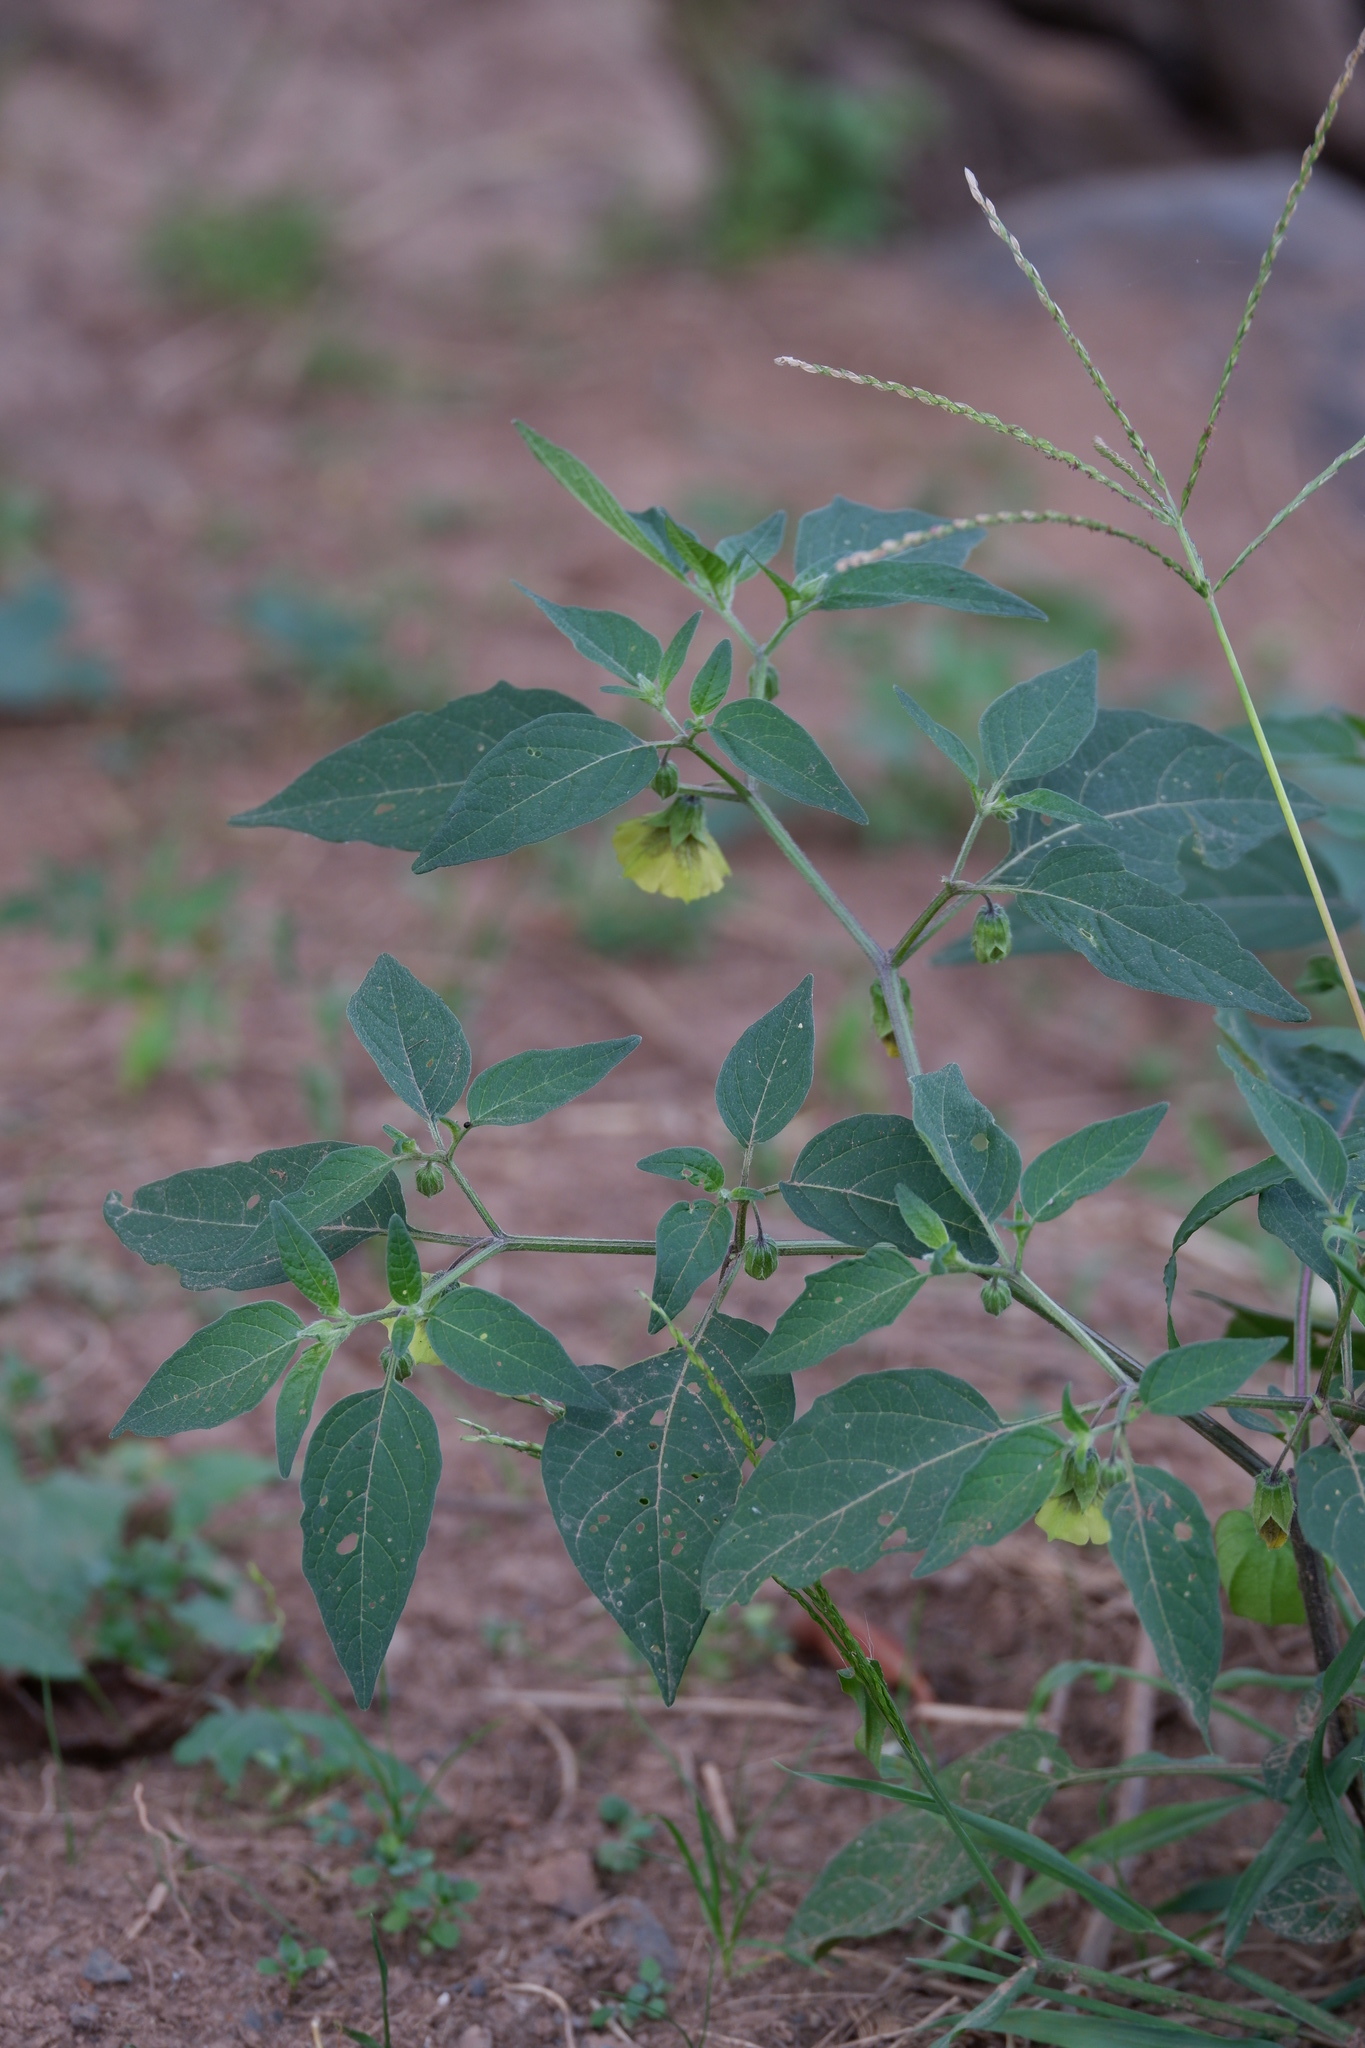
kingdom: Plantae
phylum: Tracheophyta
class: Magnoliopsida
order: Solanales
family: Solanaceae
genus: Physalis
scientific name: Physalis longifolia
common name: Common ground-cherry
